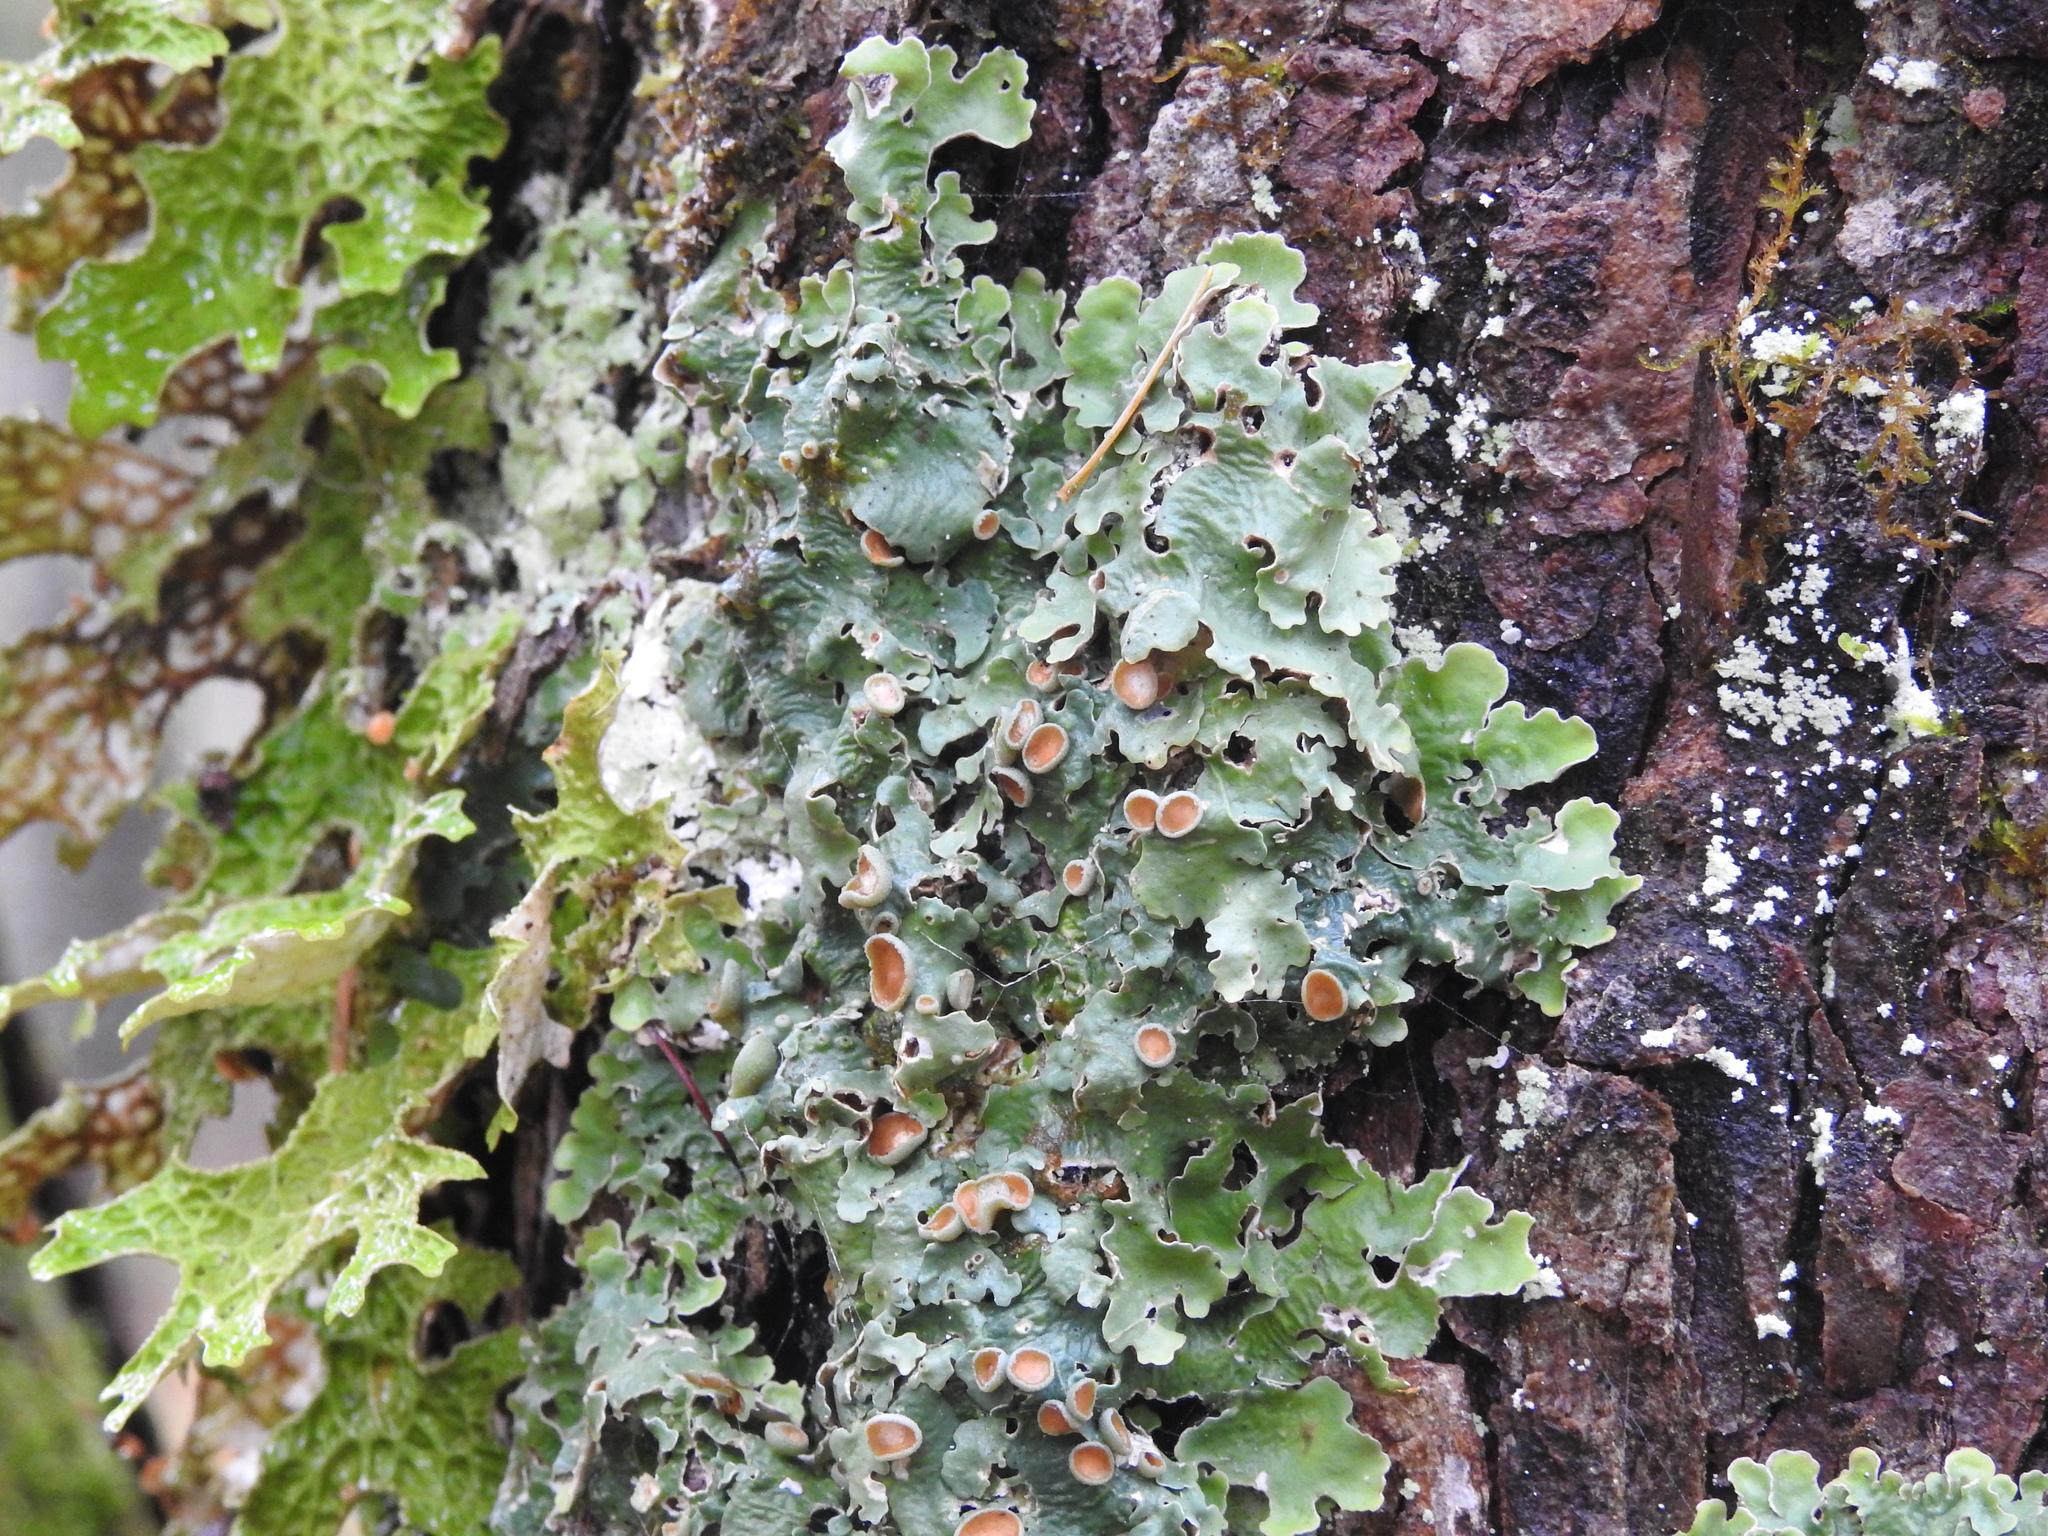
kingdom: Fungi
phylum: Ascomycota
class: Lecanoromycetes
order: Peltigerales
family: Lobariaceae
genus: Ricasolia
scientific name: Ricasolia quercizans
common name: Smooth lungwort
